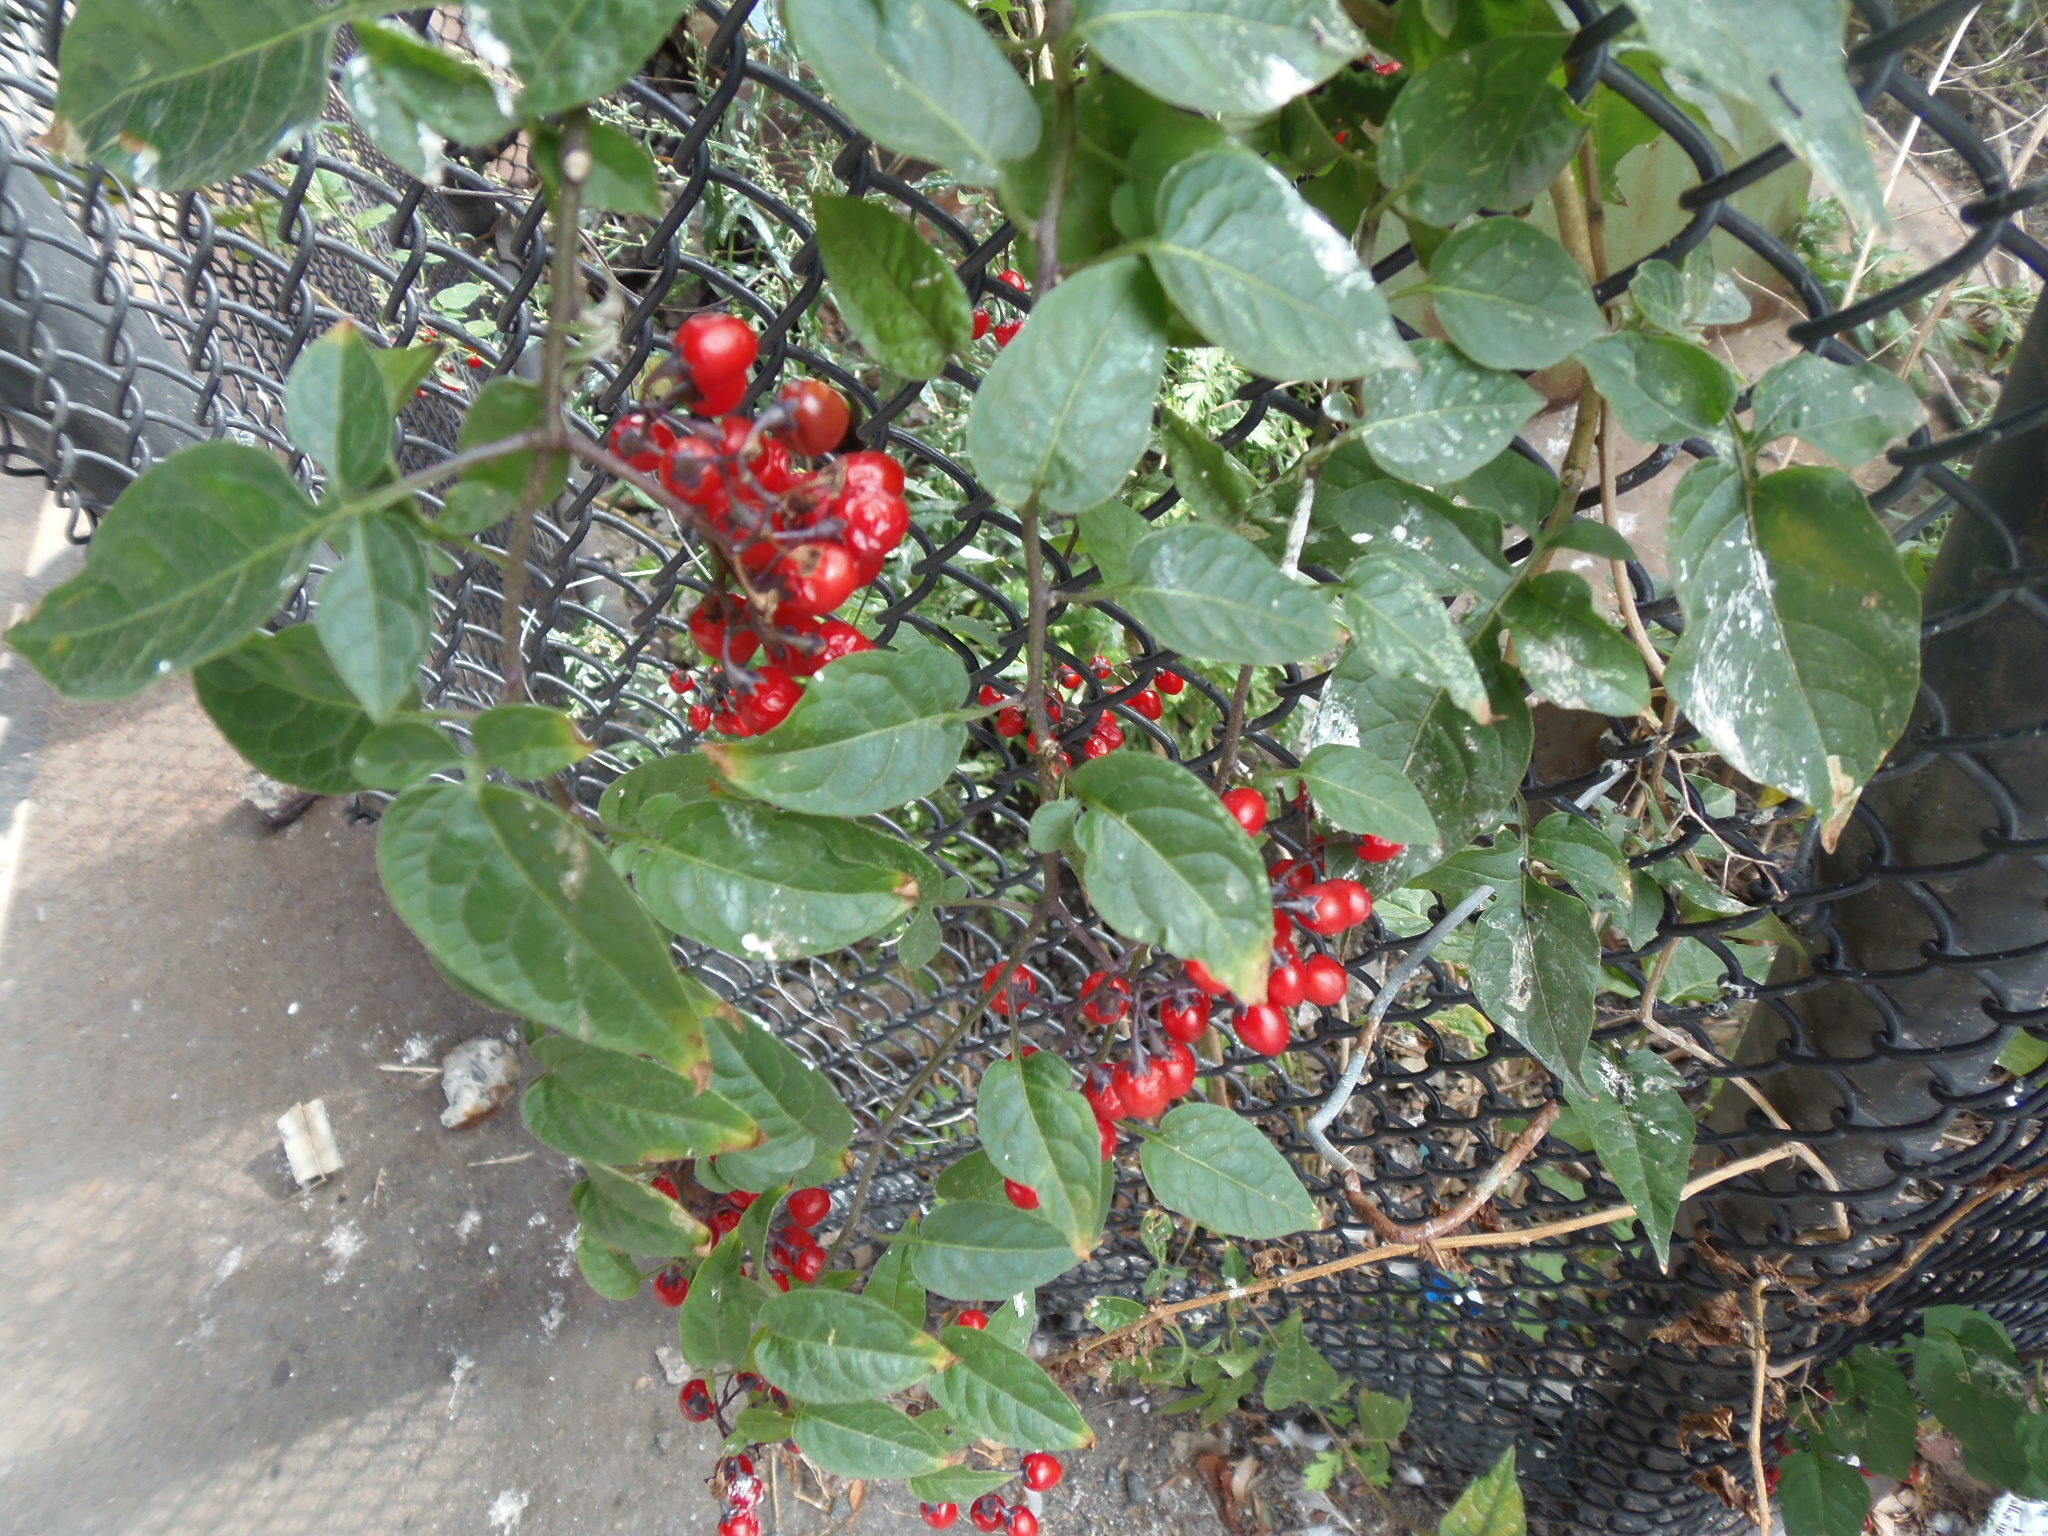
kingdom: Plantae
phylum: Tracheophyta
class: Magnoliopsida
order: Solanales
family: Solanaceae
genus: Solanum
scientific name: Solanum dulcamara
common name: Climbing nightshade
